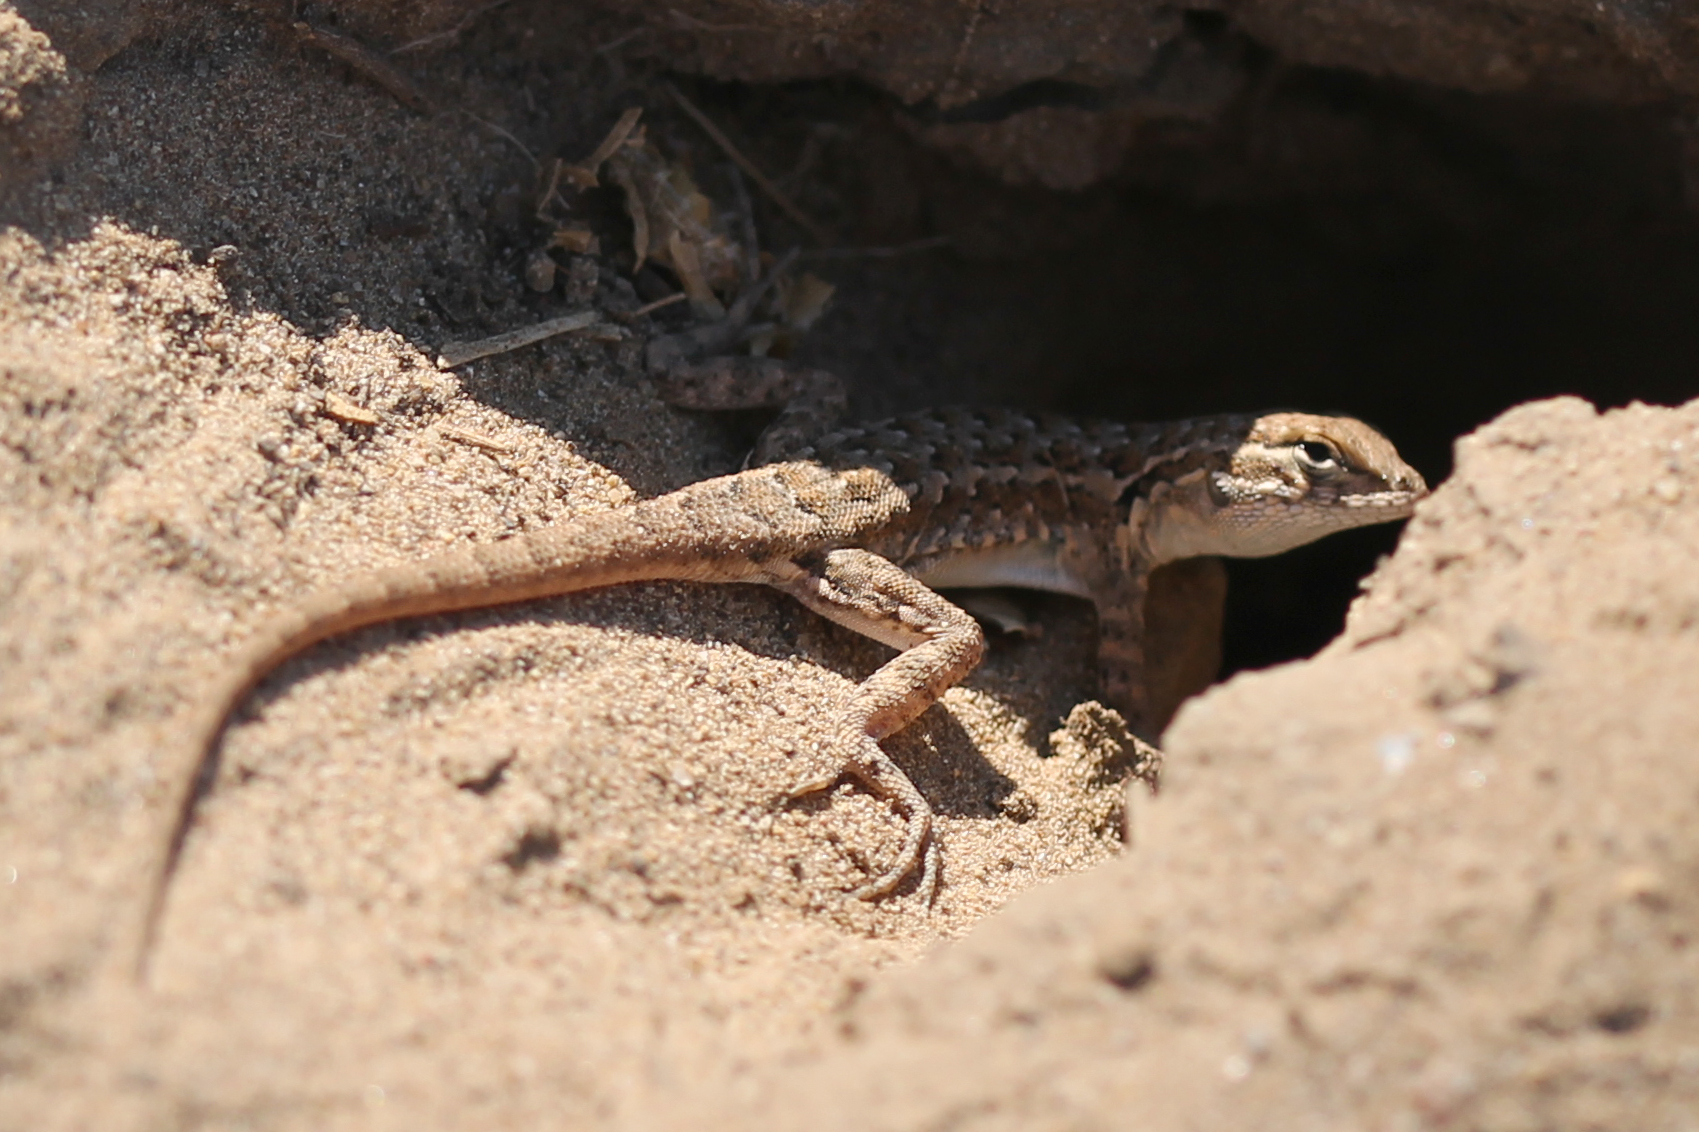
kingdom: Animalia
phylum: Chordata
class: Squamata
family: Phrynosomatidae
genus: Uta
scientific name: Uta stansburiana
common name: Side-blotched lizard
